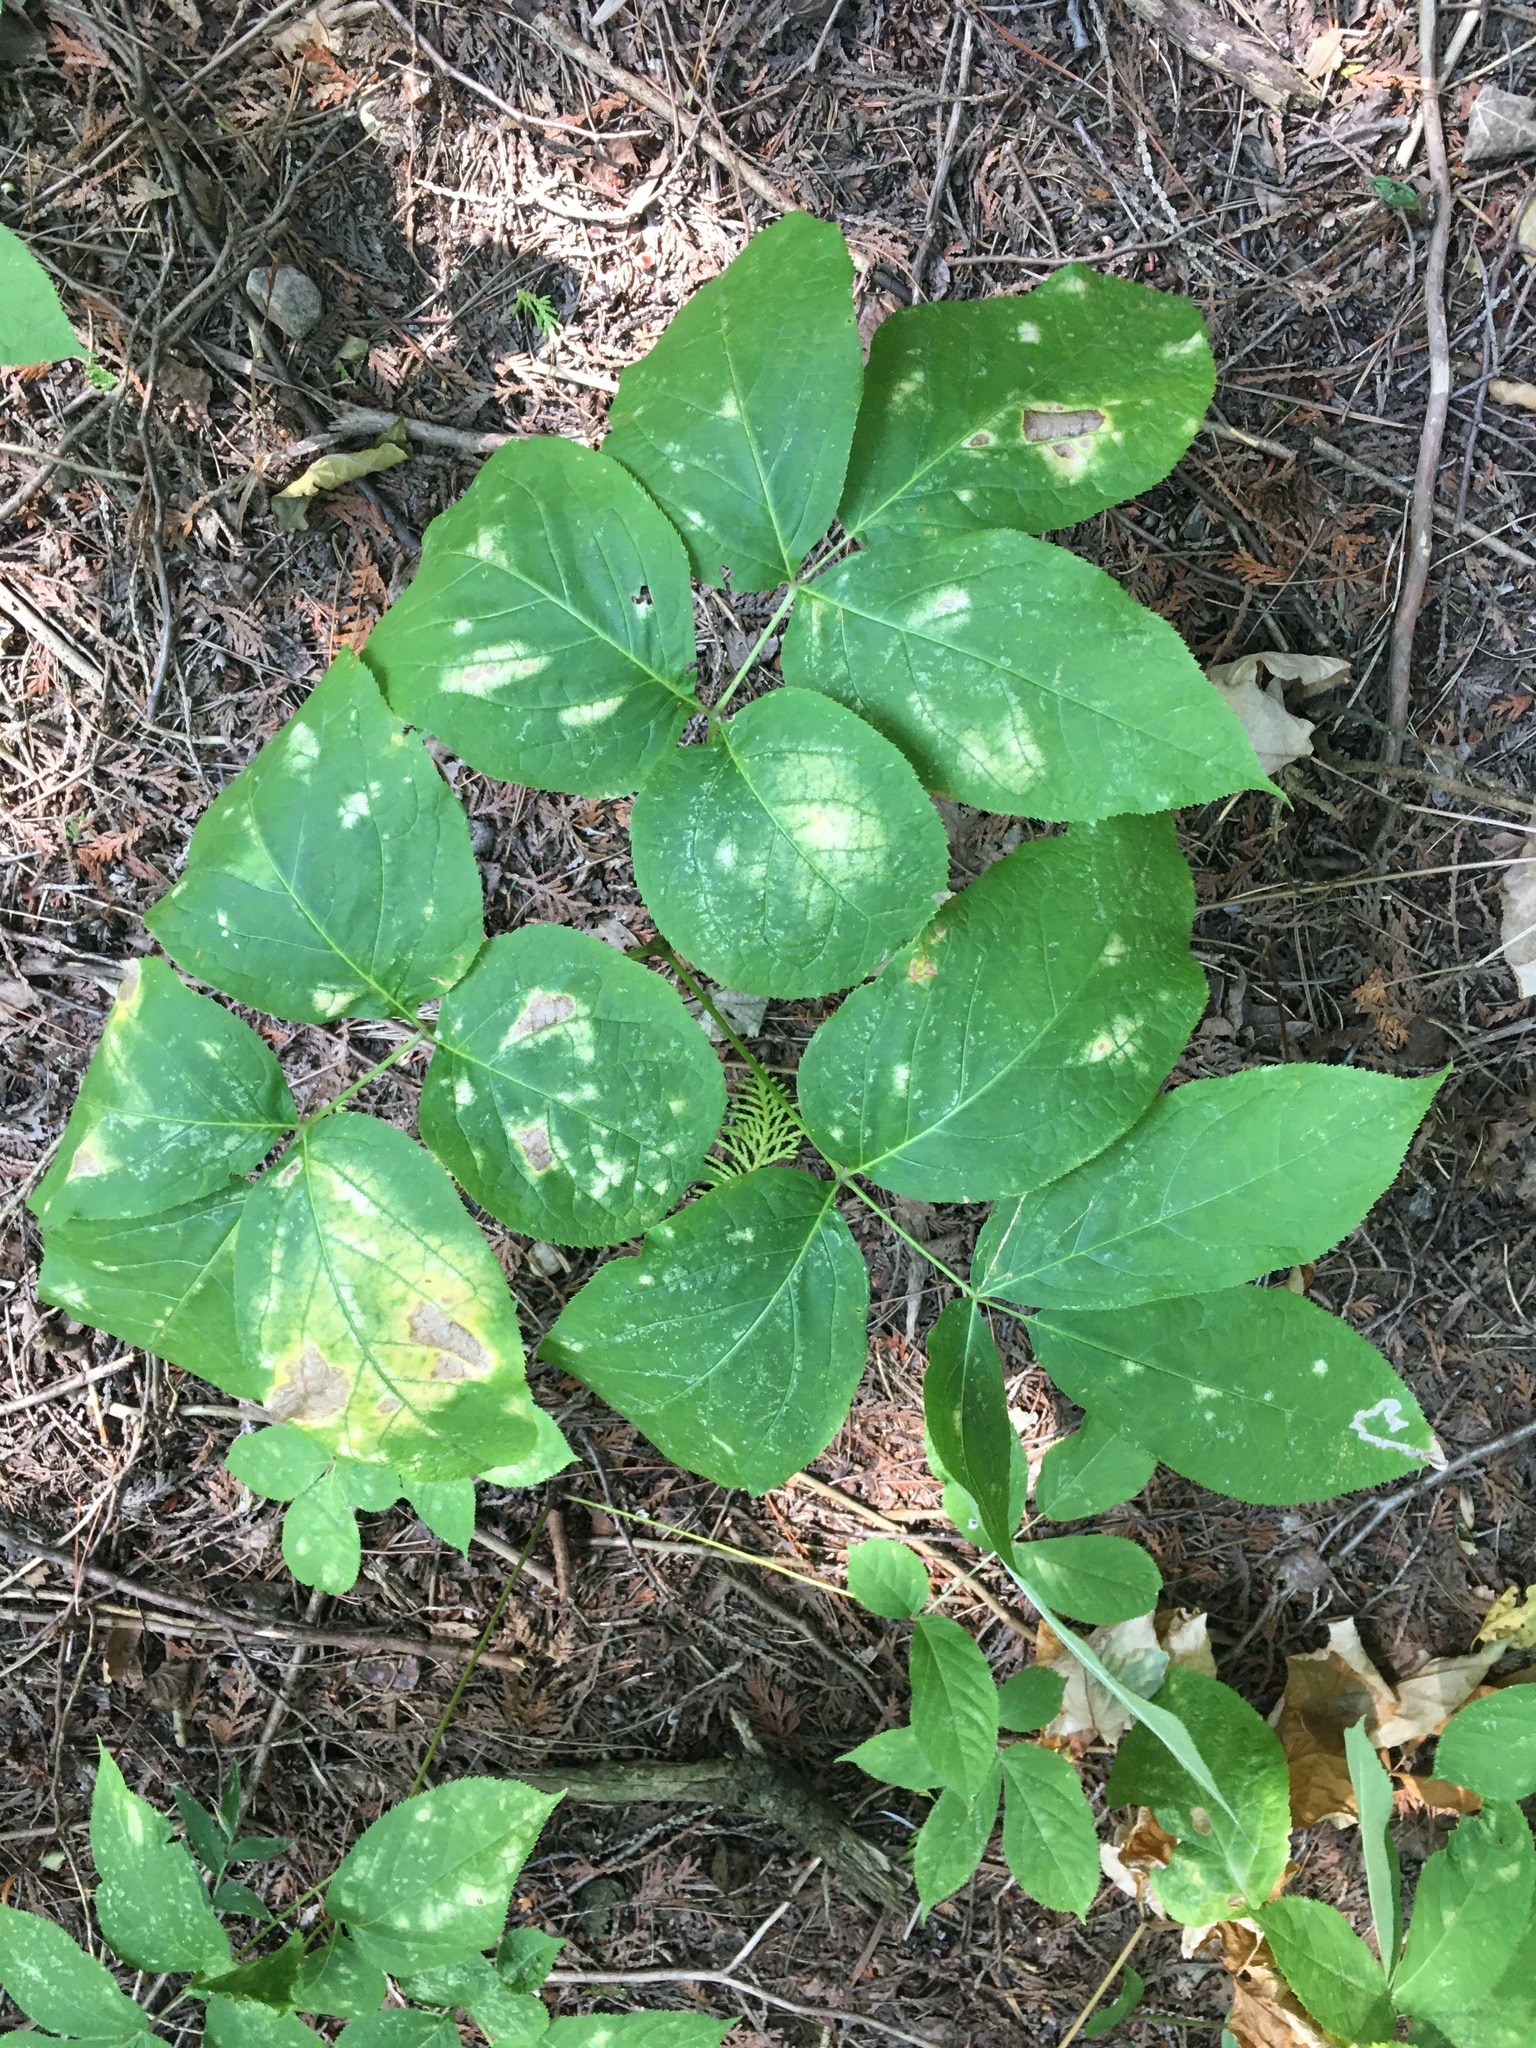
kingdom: Plantae
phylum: Tracheophyta
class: Magnoliopsida
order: Apiales
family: Araliaceae
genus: Aralia
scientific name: Aralia nudicaulis
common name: Wild sarsaparilla
